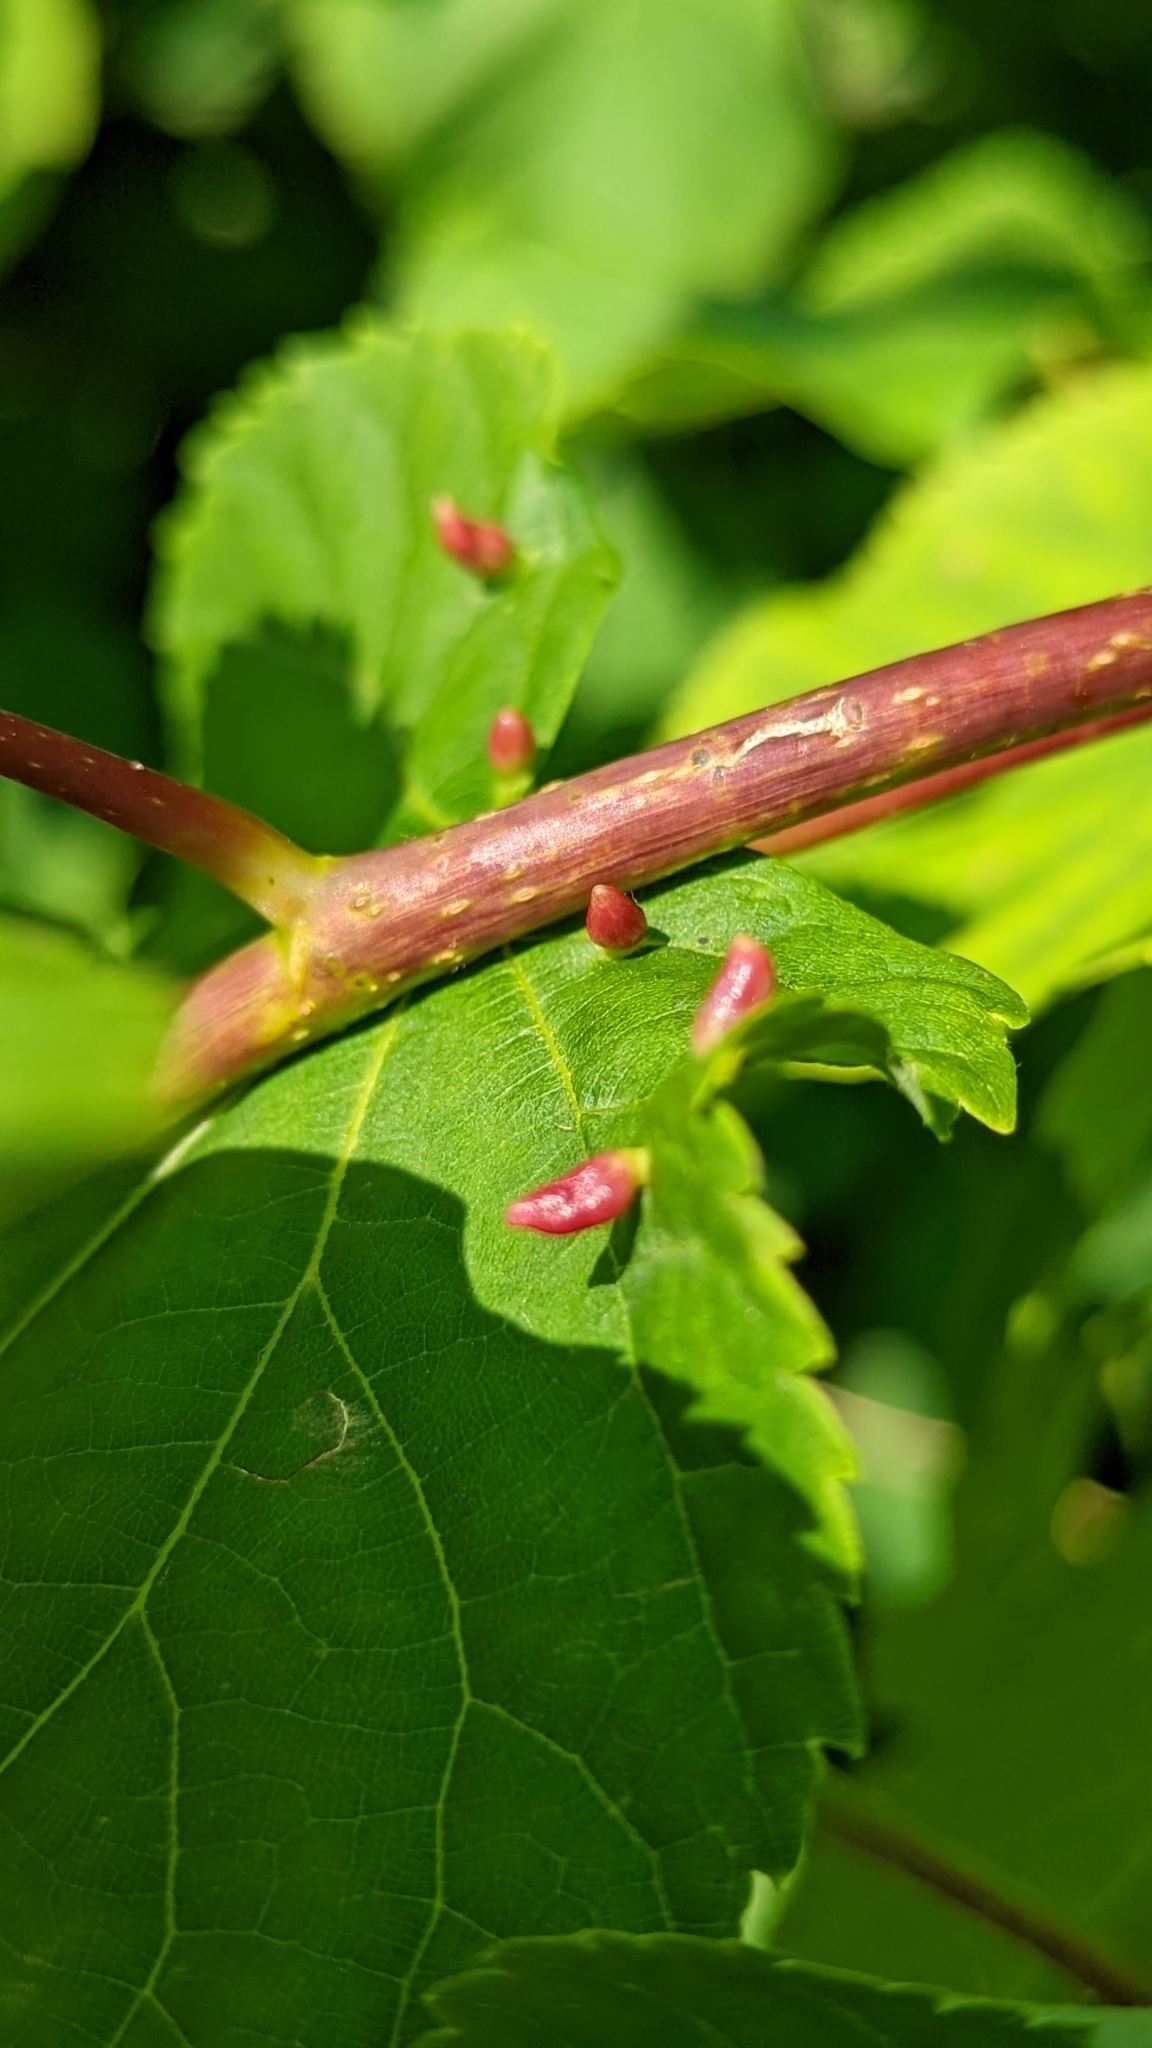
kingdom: Animalia
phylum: Arthropoda
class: Arachnida
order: Trombidiformes
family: Eriophyidae
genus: Eriophyes
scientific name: Eriophyes tiliae
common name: Red nail gall mite
